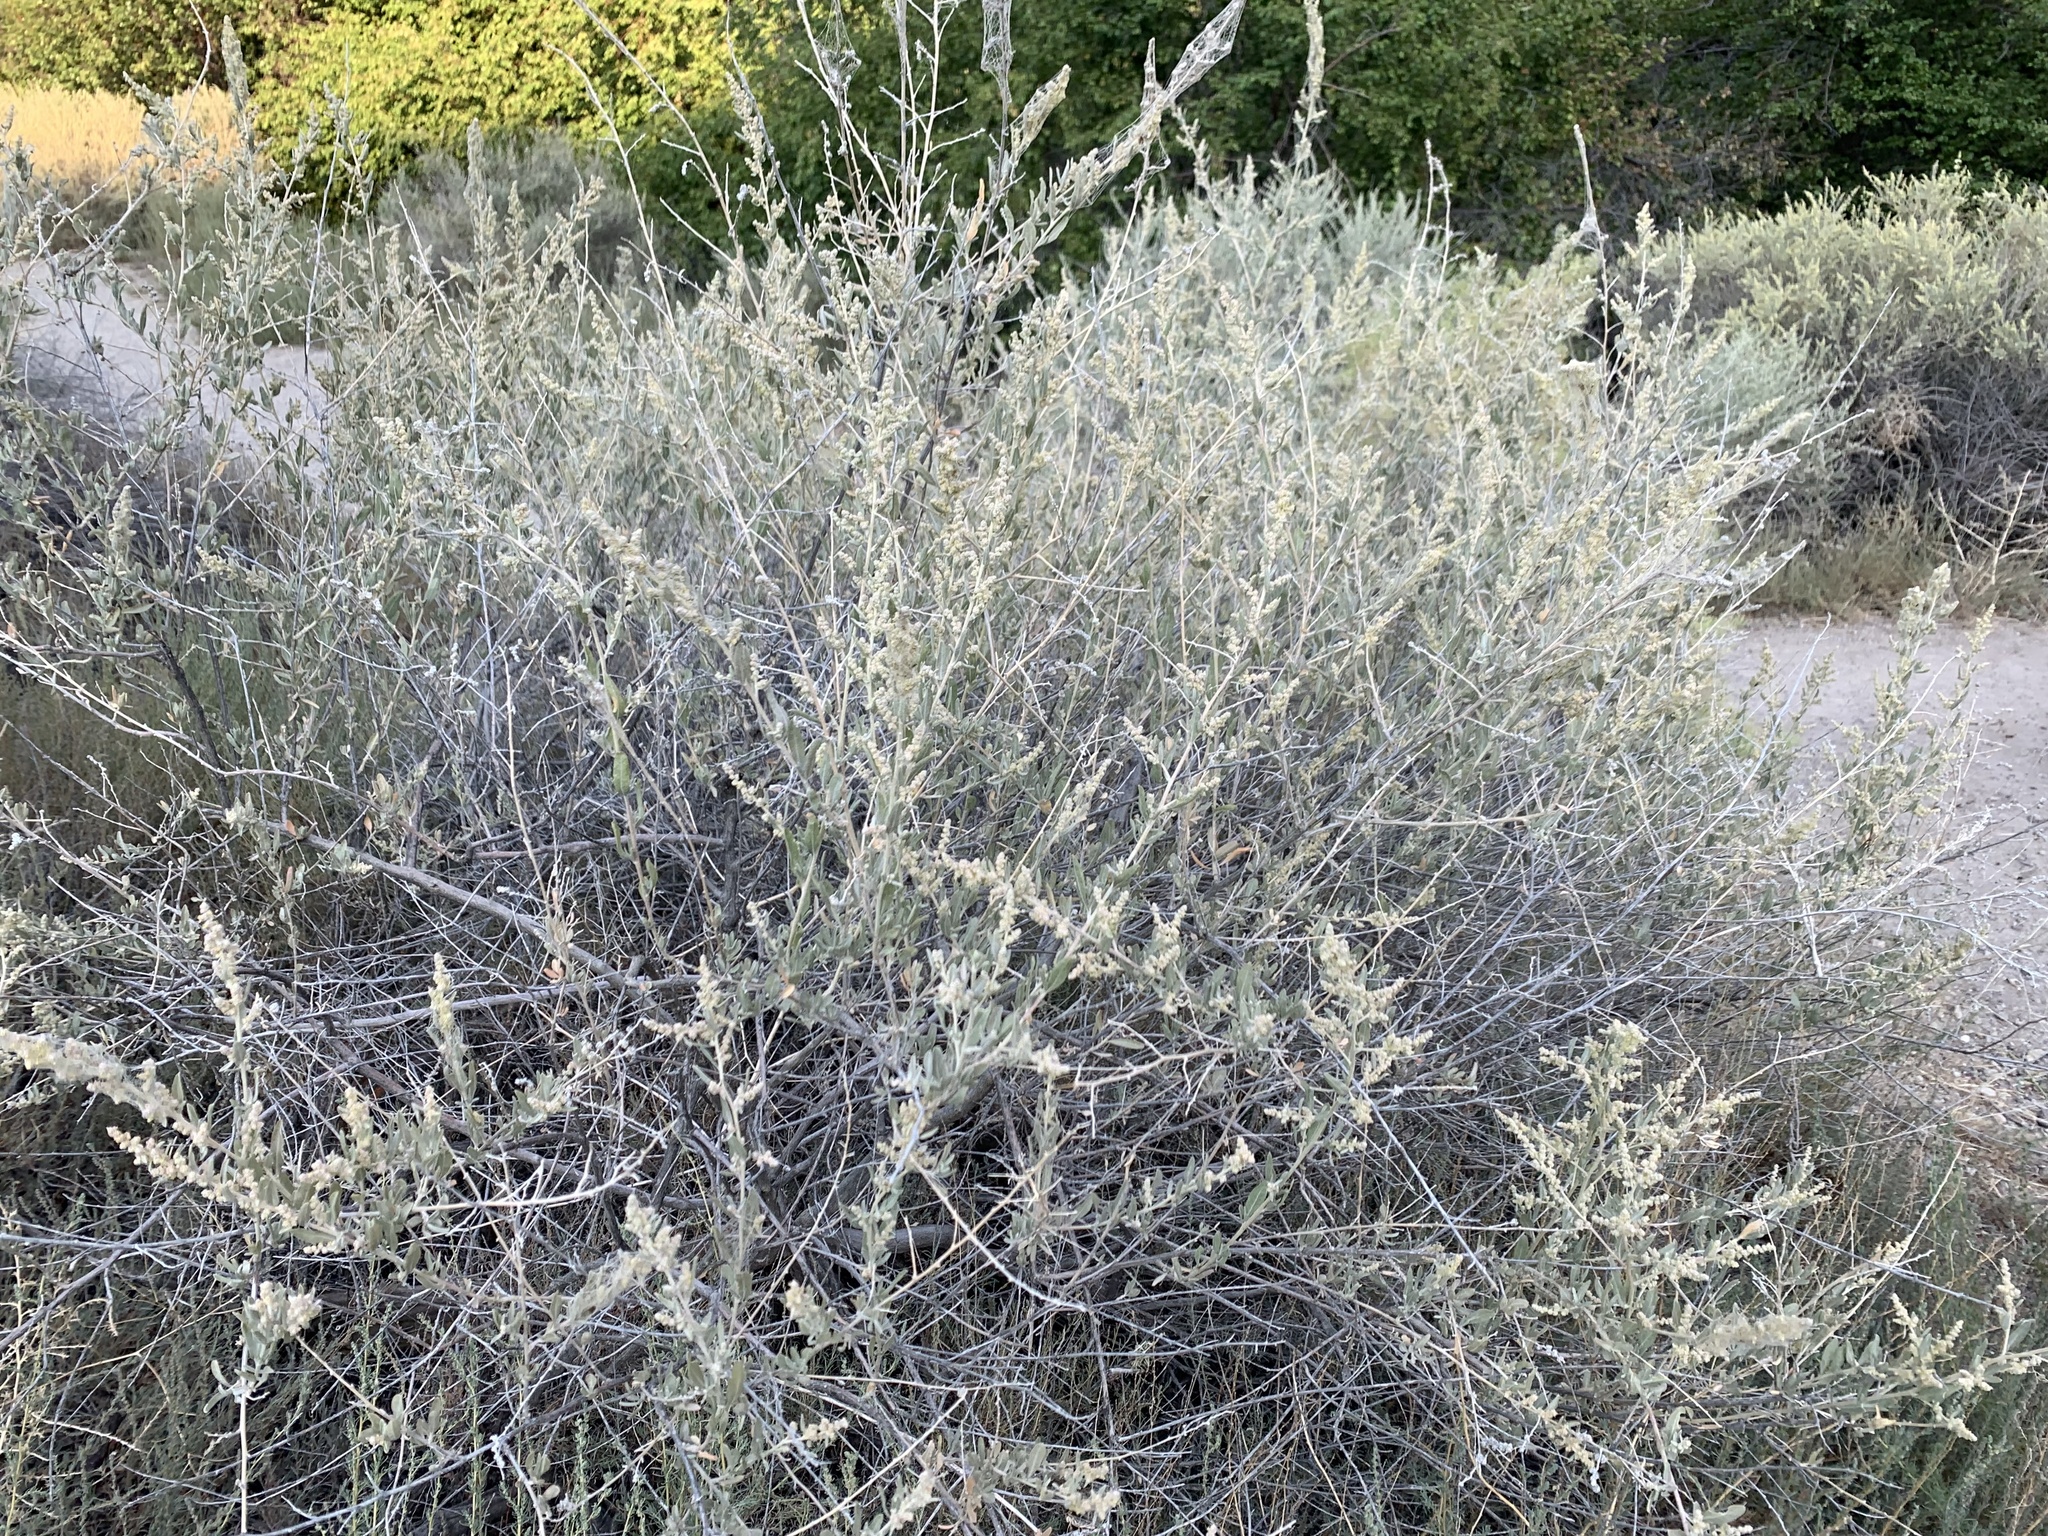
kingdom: Plantae
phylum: Tracheophyta
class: Magnoliopsida
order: Caryophyllales
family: Amaranthaceae
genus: Atriplex
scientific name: Atriplex canescens
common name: Four-wing saltbush
